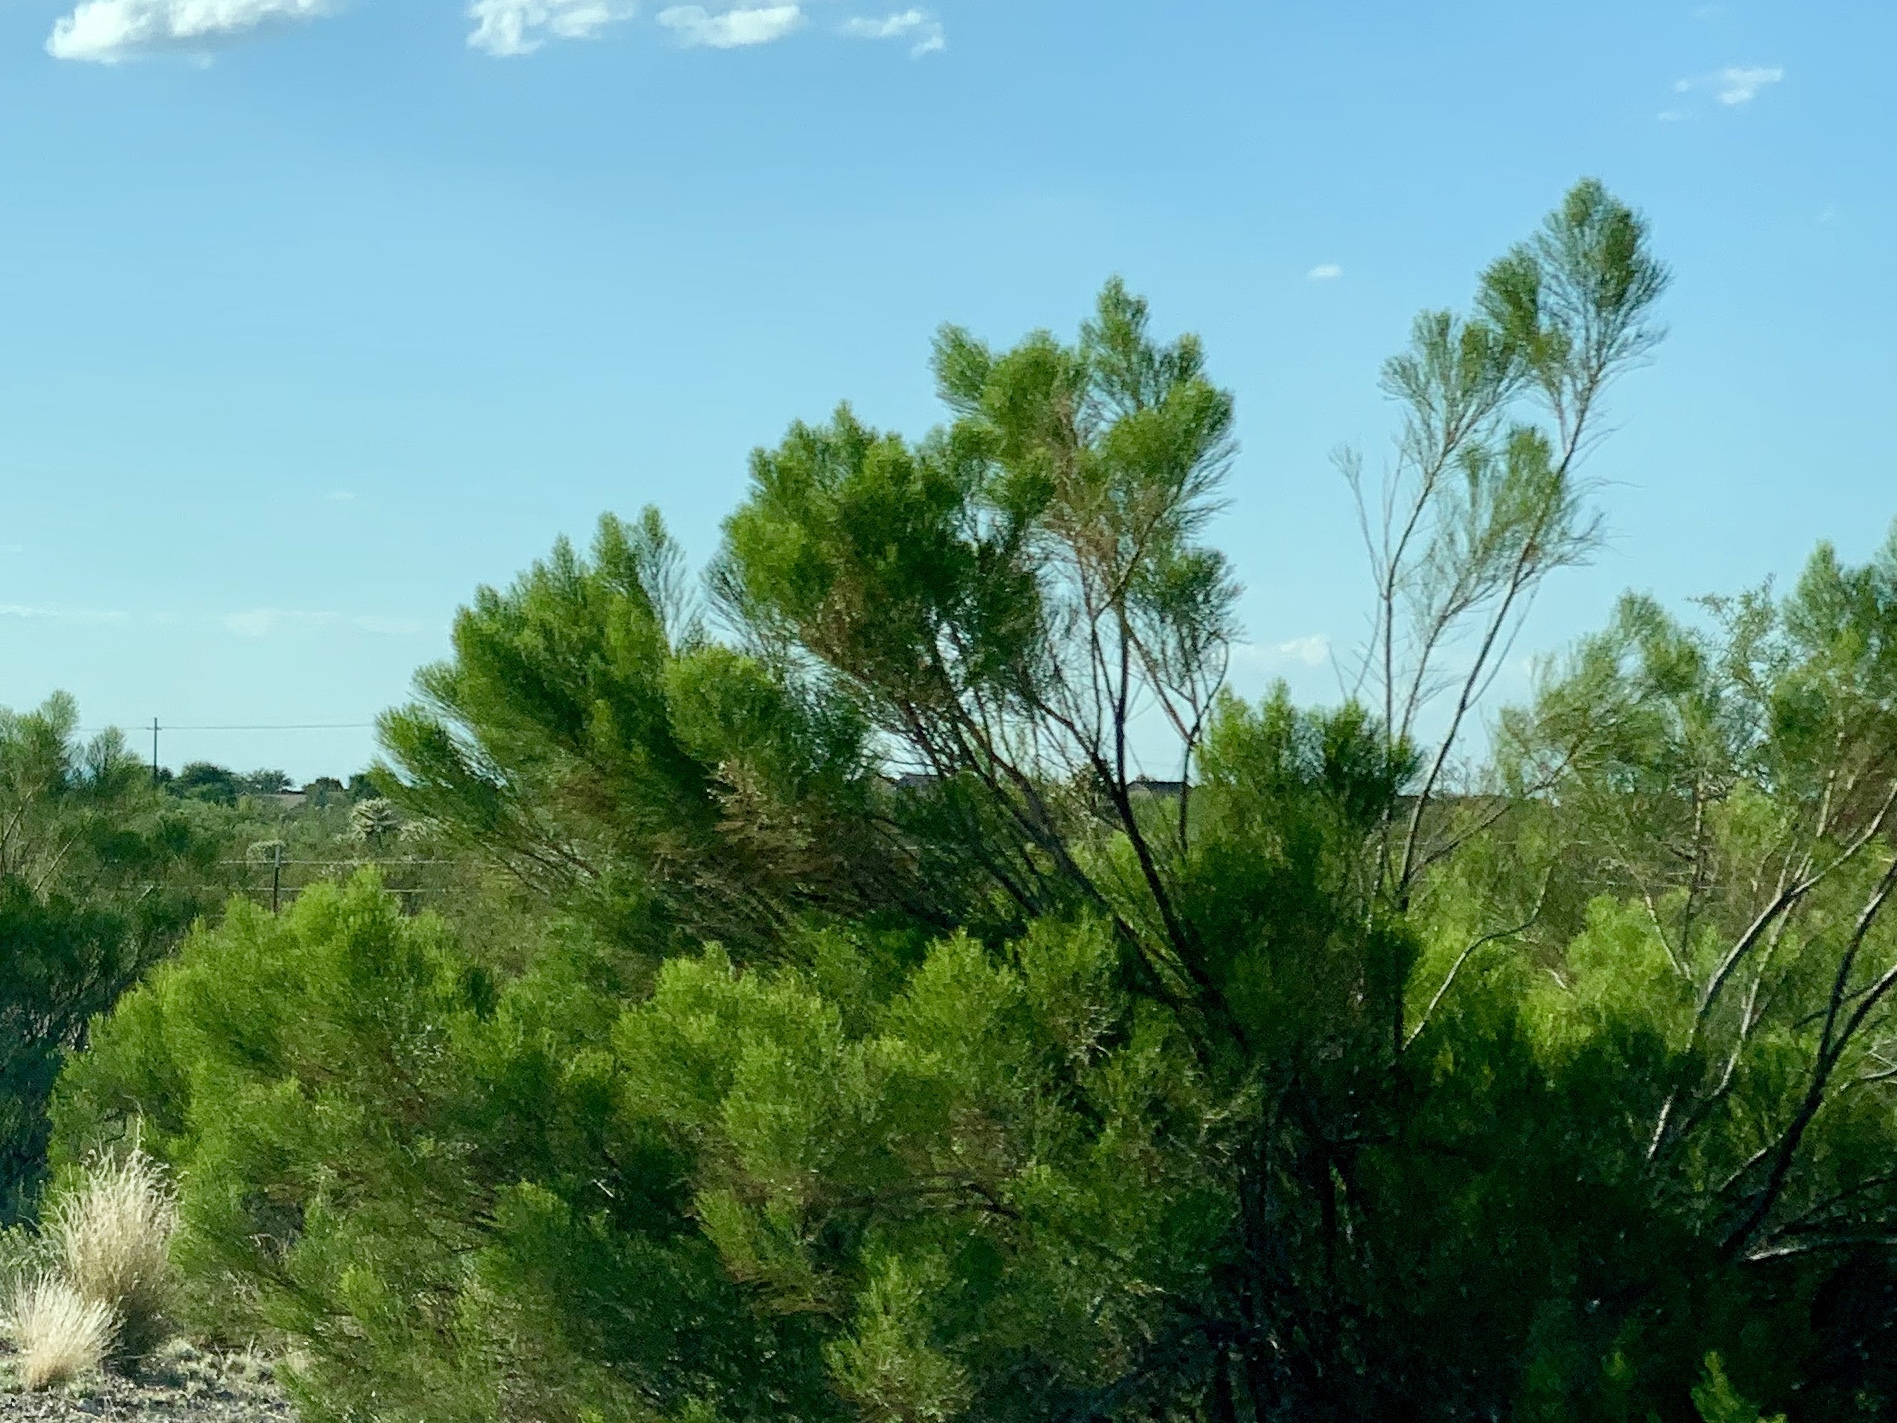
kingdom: Plantae
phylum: Tracheophyta
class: Magnoliopsida
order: Asterales
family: Asteraceae
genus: Baccharis
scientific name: Baccharis sarothroides
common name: Desert-broom
